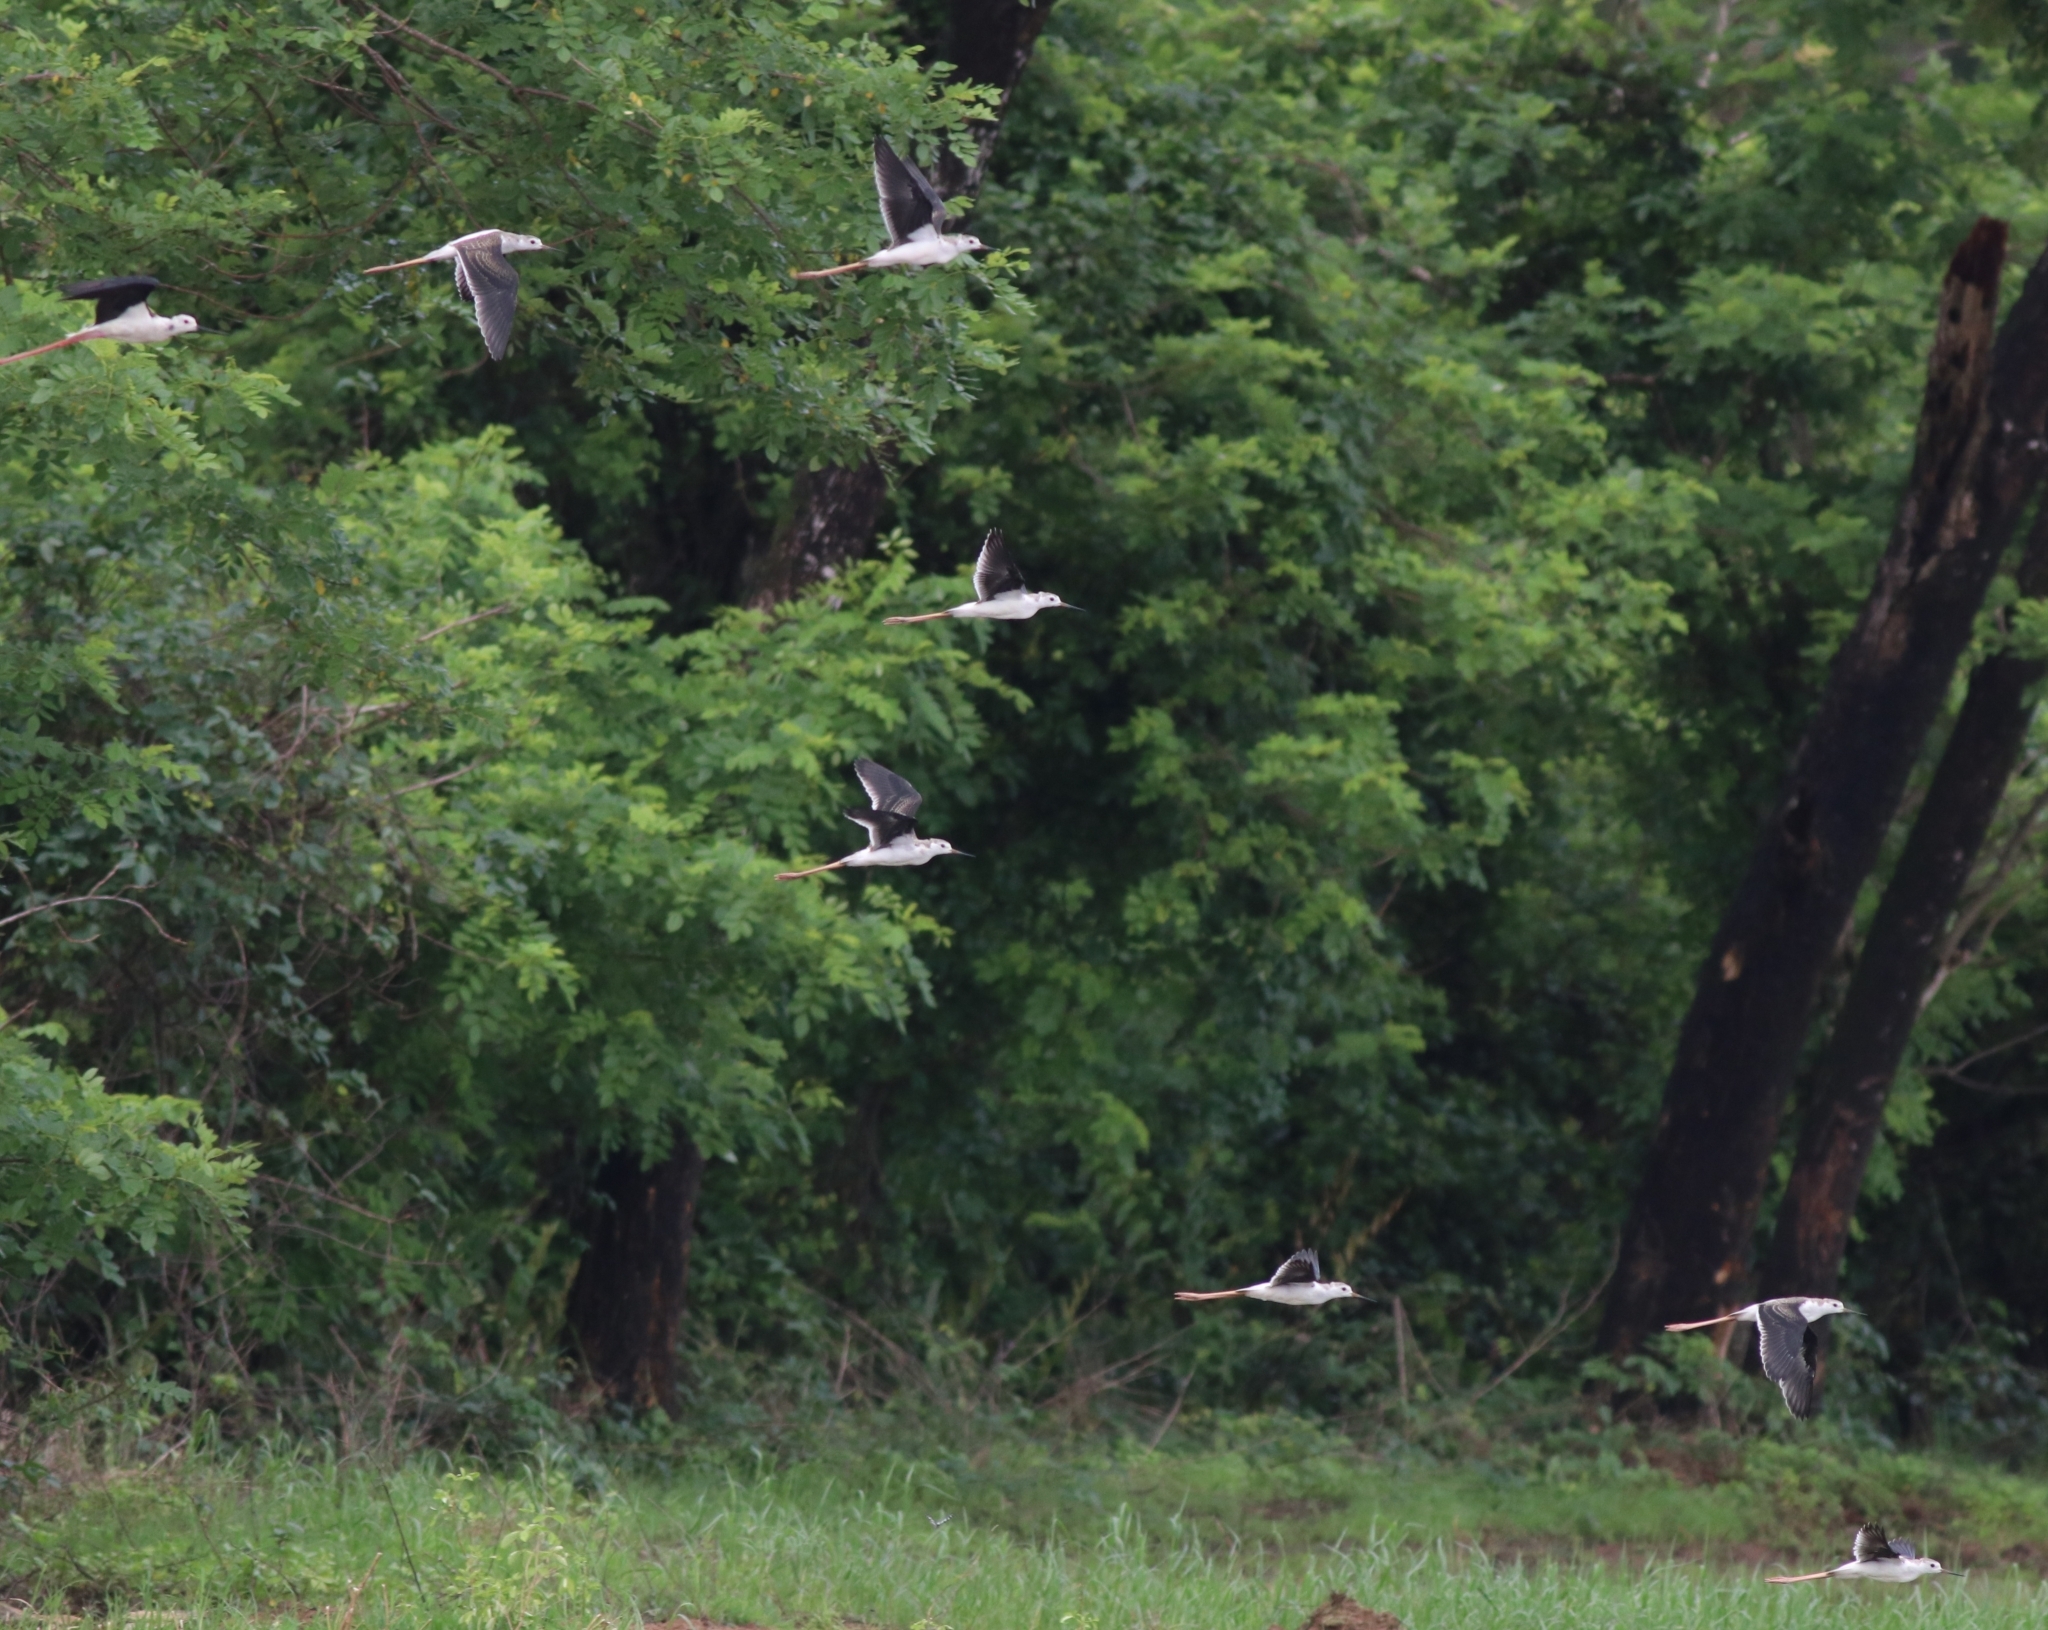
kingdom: Animalia
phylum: Chordata
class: Aves
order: Charadriiformes
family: Recurvirostridae
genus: Himantopus
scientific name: Himantopus himantopus
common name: Black-winged stilt
